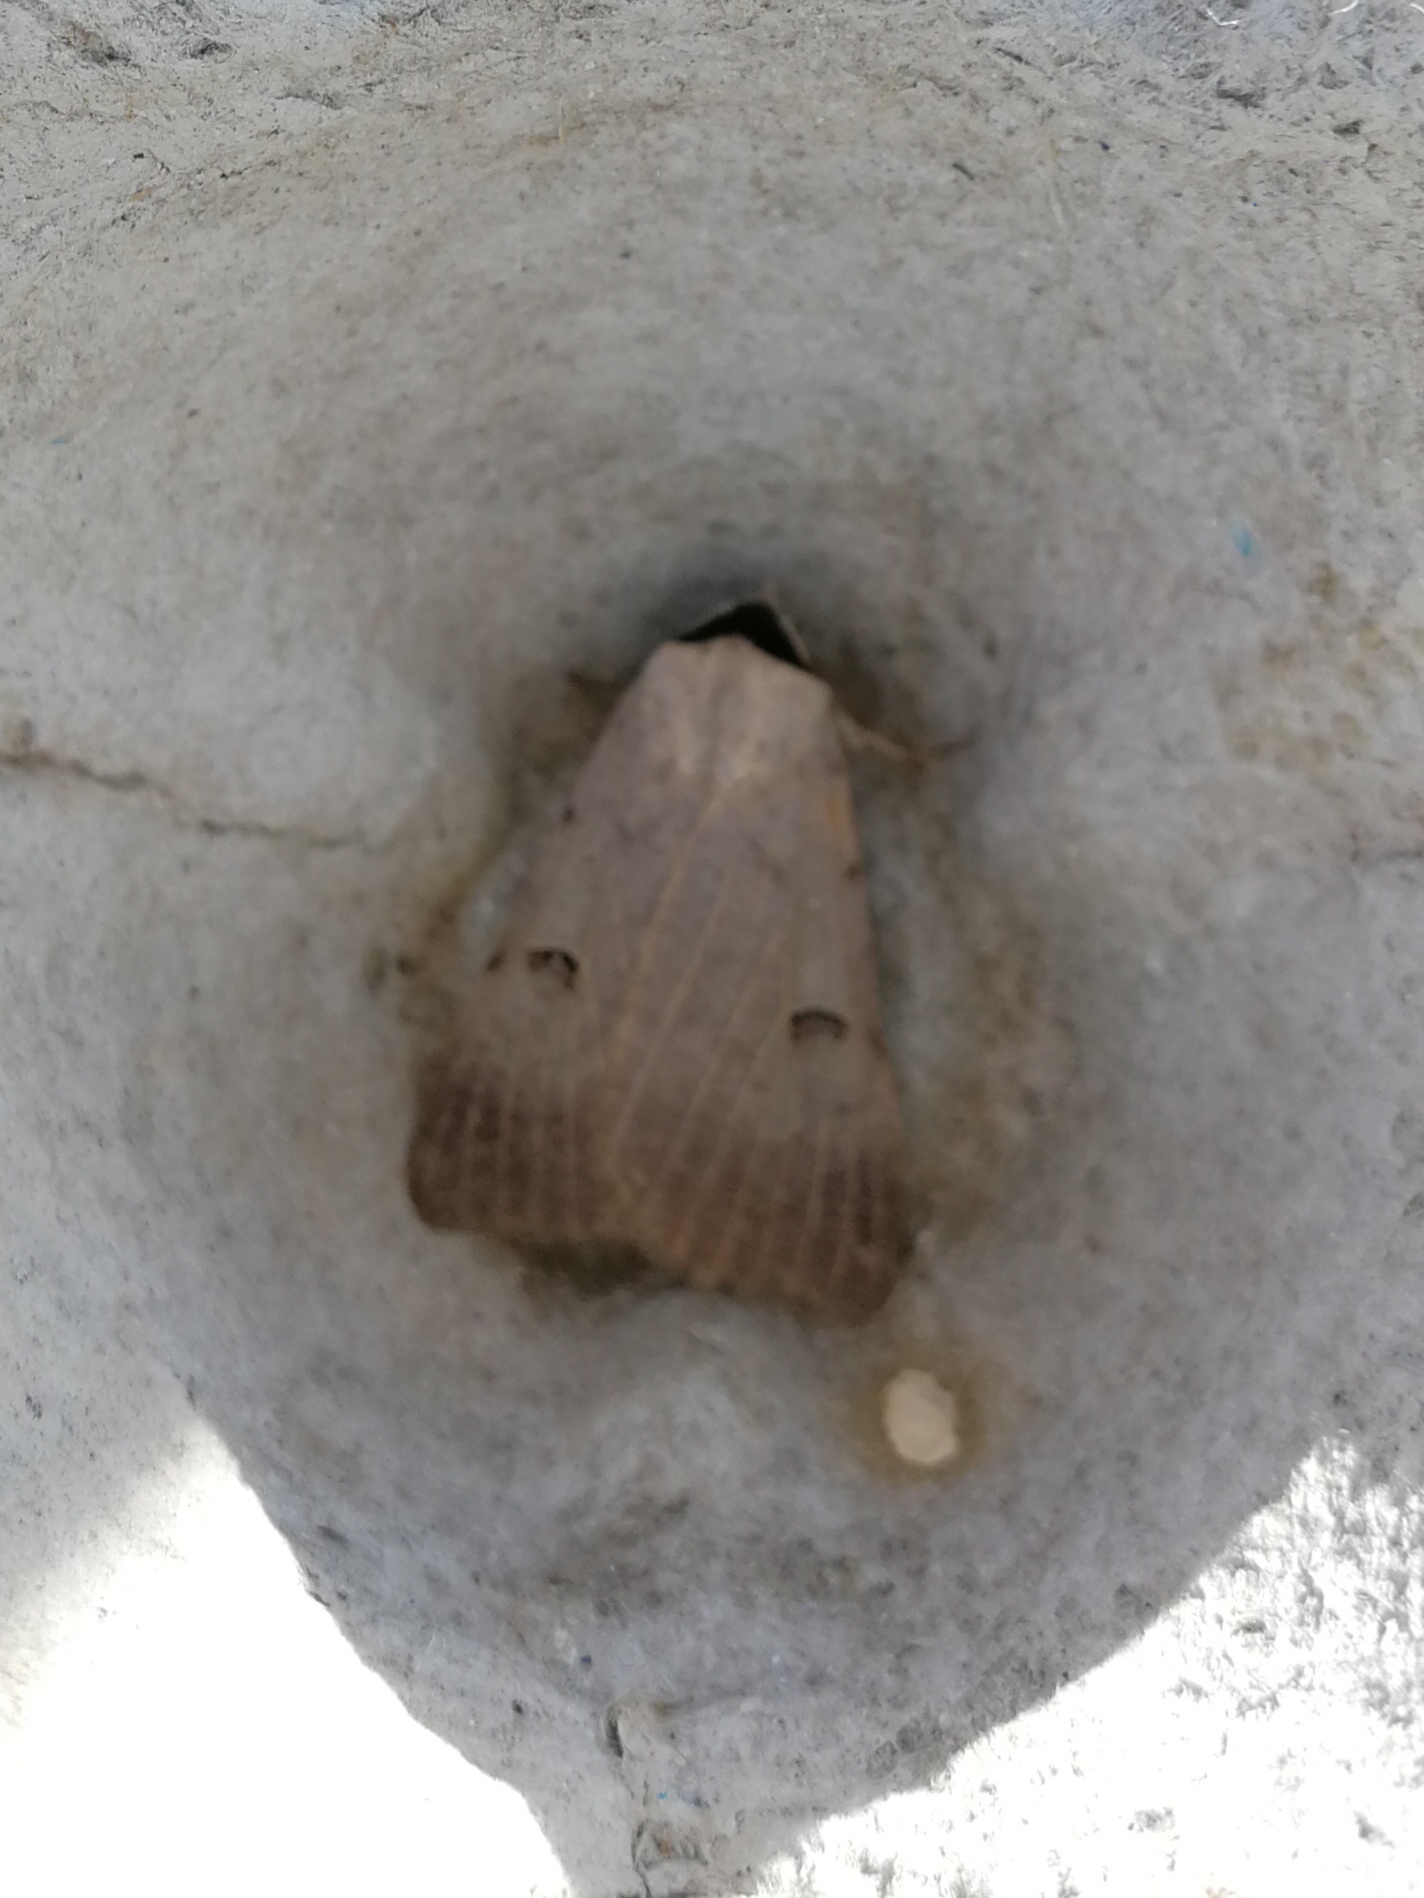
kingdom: Animalia
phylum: Arthropoda
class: Insecta
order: Lepidoptera
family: Erebidae
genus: Lygephila
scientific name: Lygephila craccae
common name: Scarce blackneck
